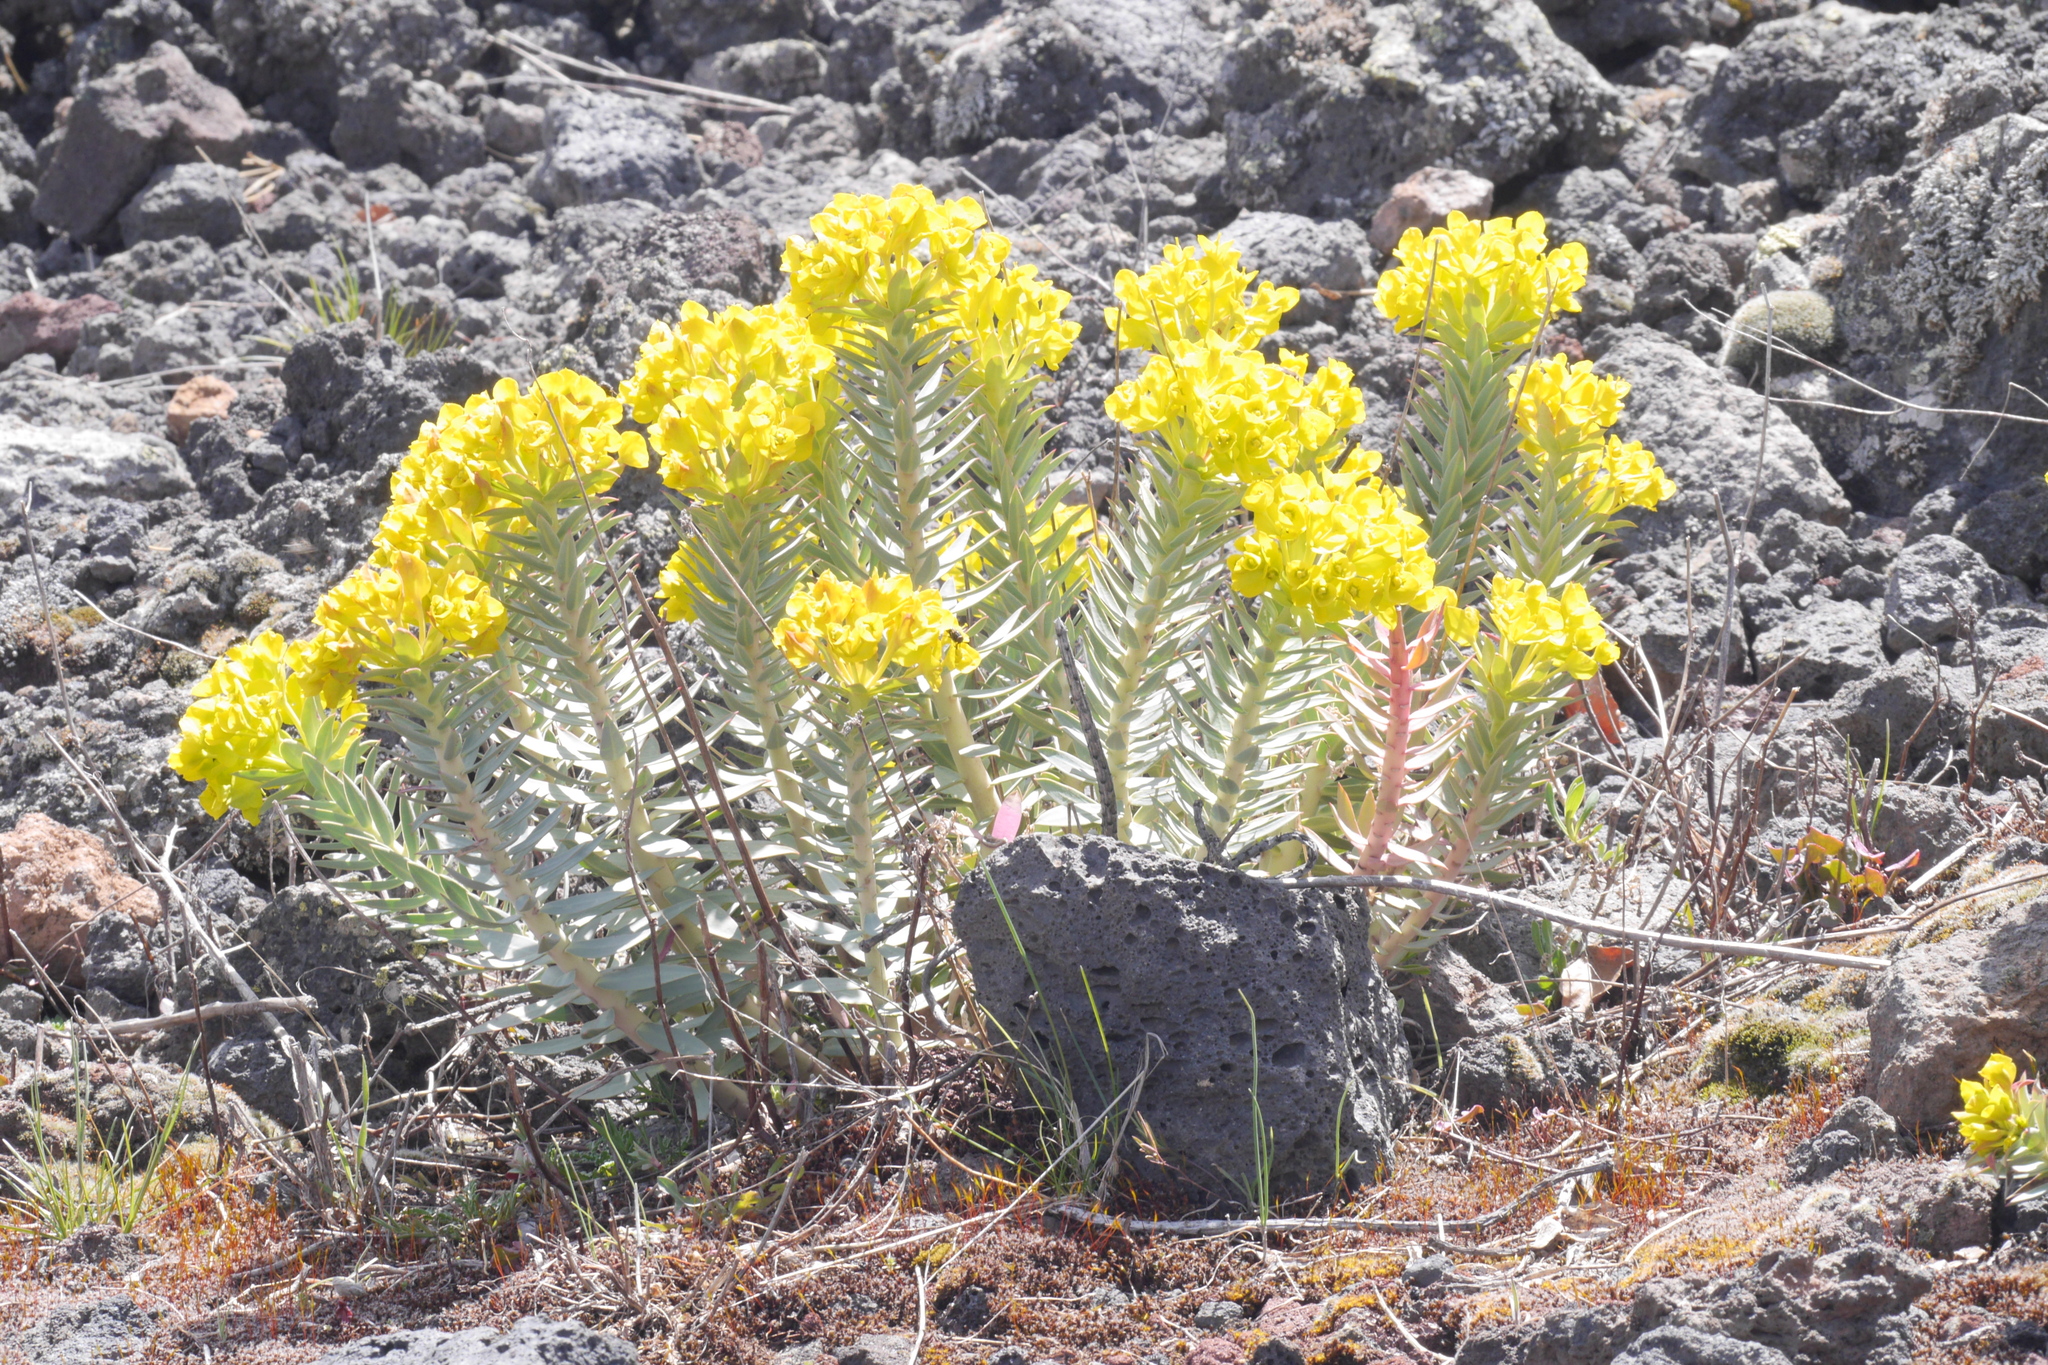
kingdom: Plantae
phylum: Tracheophyta
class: Magnoliopsida
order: Malpighiales
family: Euphorbiaceae
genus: Euphorbia
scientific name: Euphorbia rigida
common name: Upright myrtle spurge
